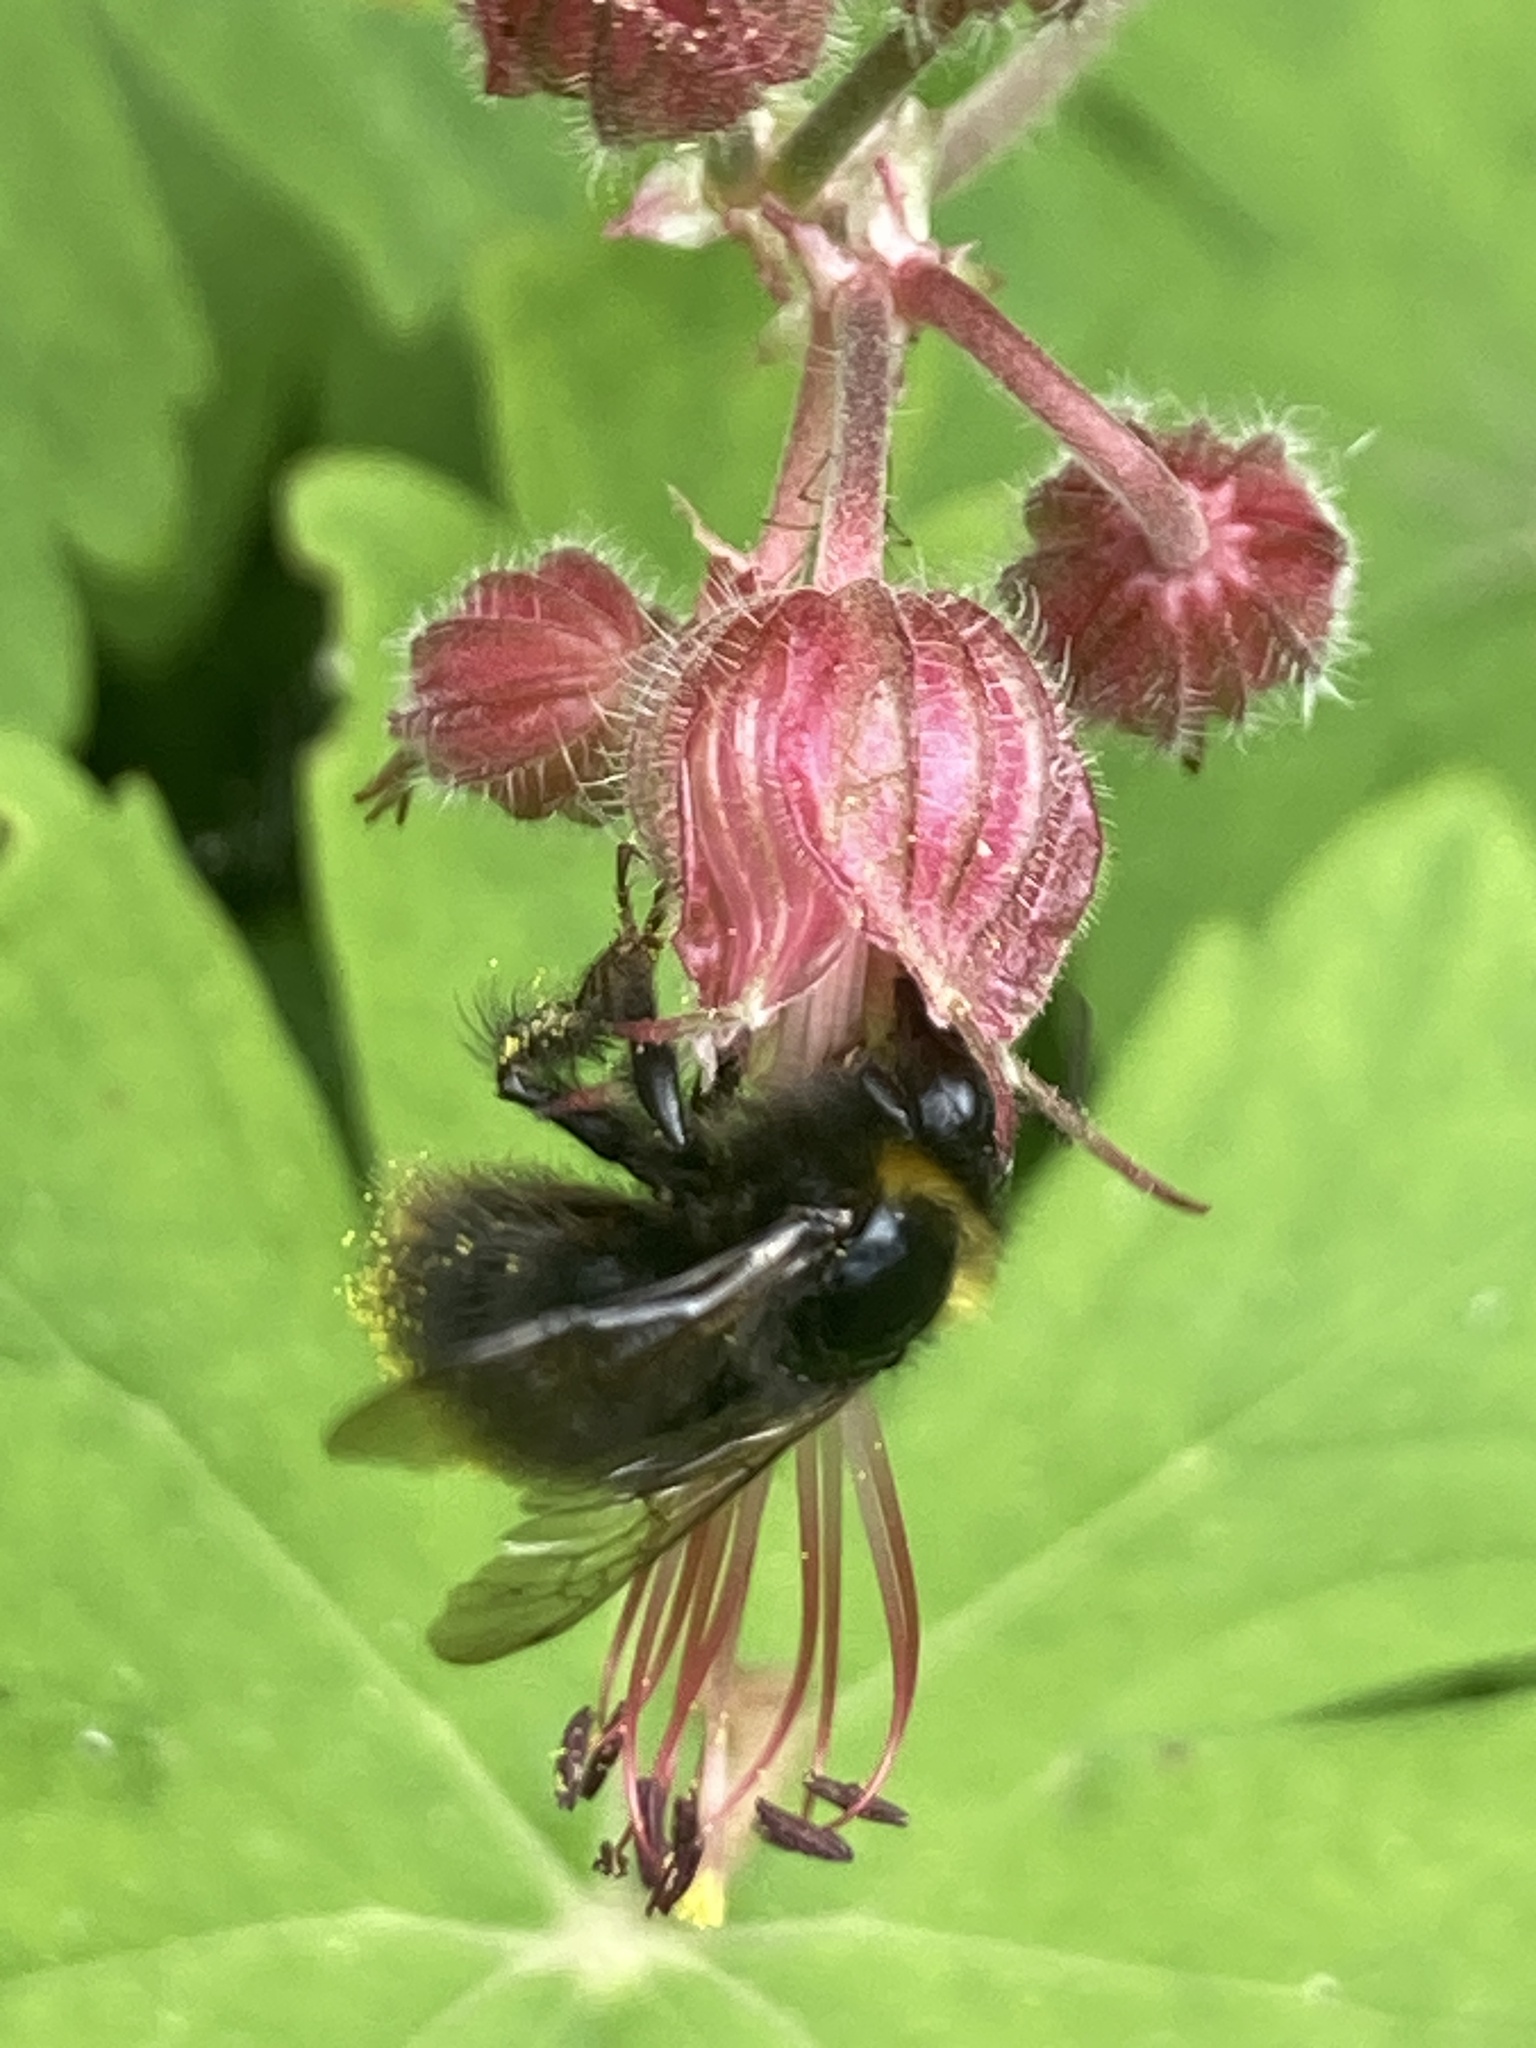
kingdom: Animalia
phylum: Arthropoda
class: Insecta
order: Hymenoptera
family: Apidae
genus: Bombus
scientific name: Bombus pratorum
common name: Early humble-bee
